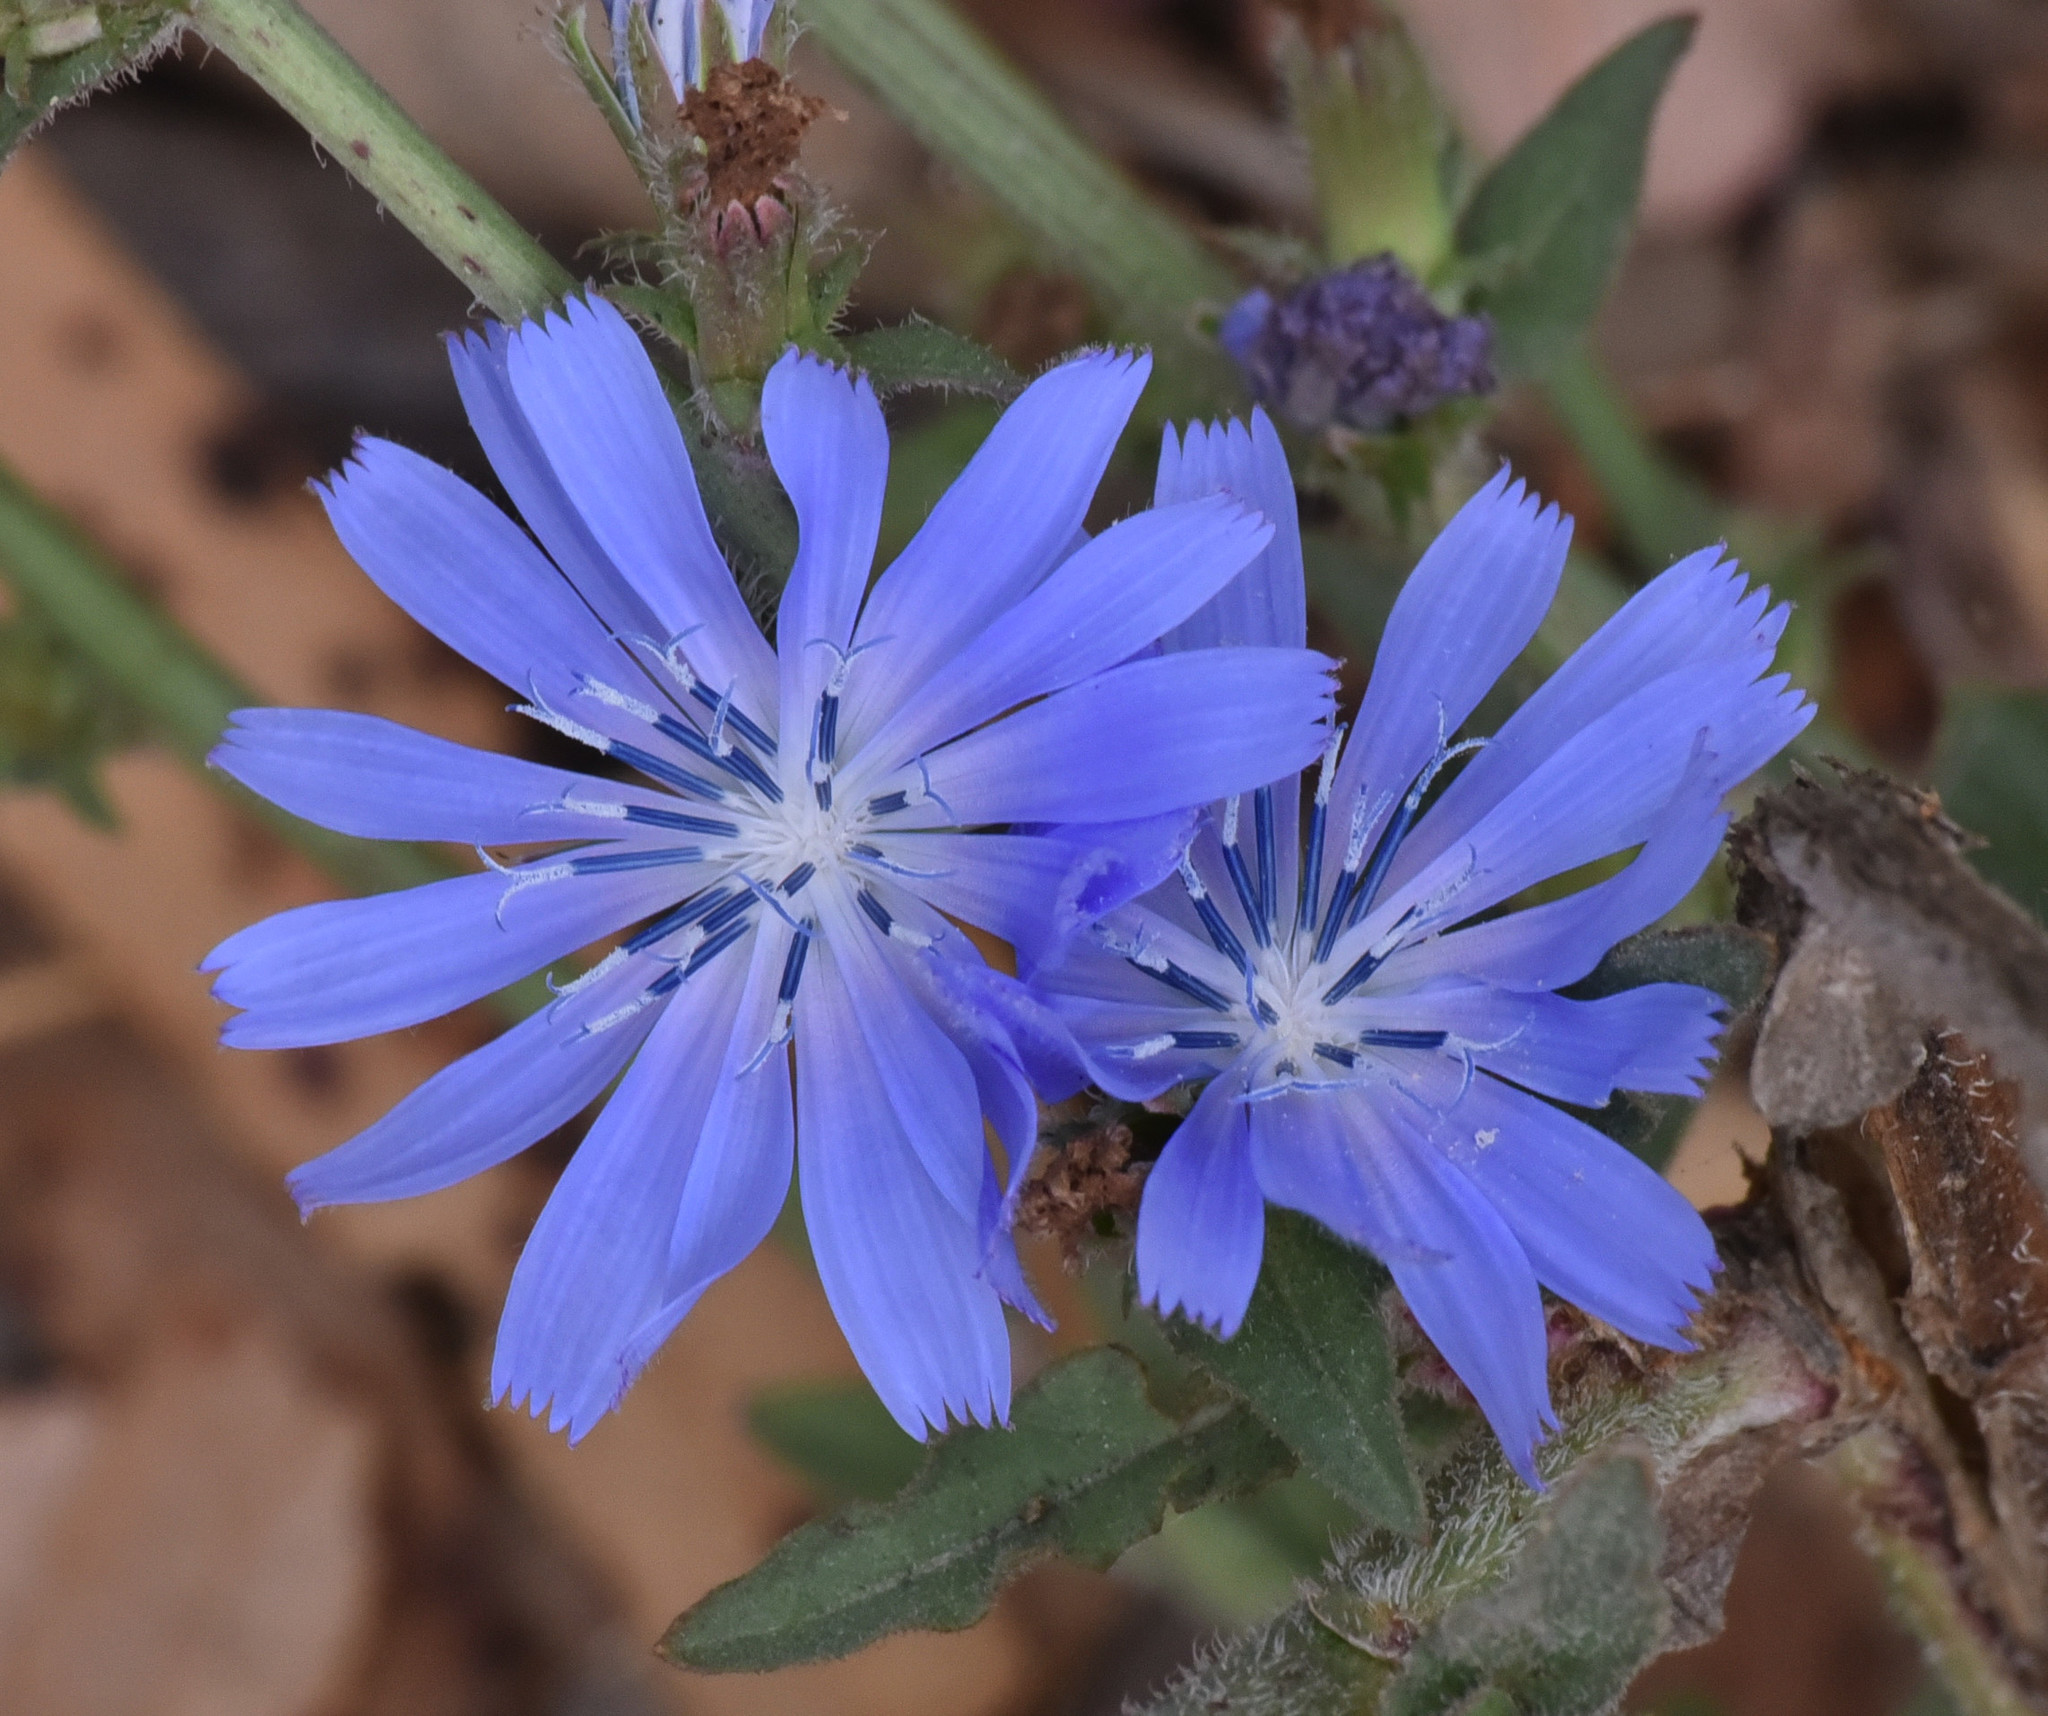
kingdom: Plantae
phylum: Tracheophyta
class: Magnoliopsida
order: Asterales
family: Asteraceae
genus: Cichorium
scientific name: Cichorium intybus
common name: Chicory
